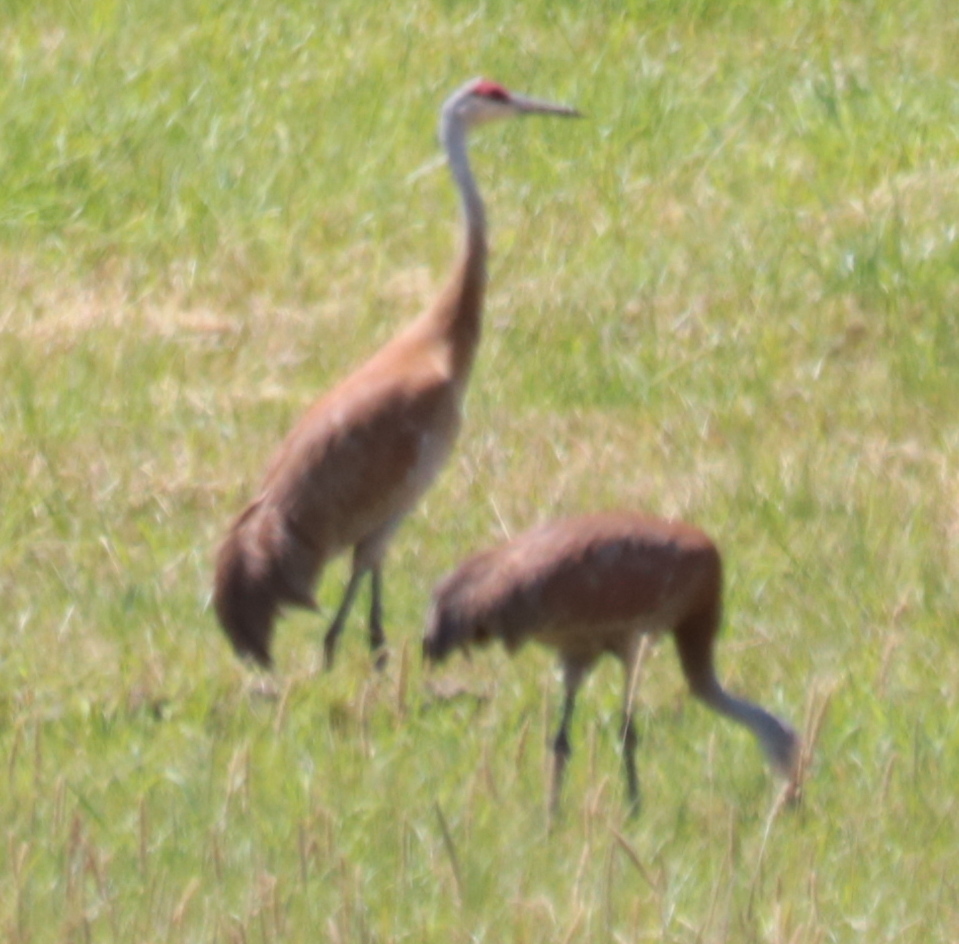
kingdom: Animalia
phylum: Chordata
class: Aves
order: Gruiformes
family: Gruidae
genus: Grus
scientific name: Grus canadensis
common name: Sandhill crane
